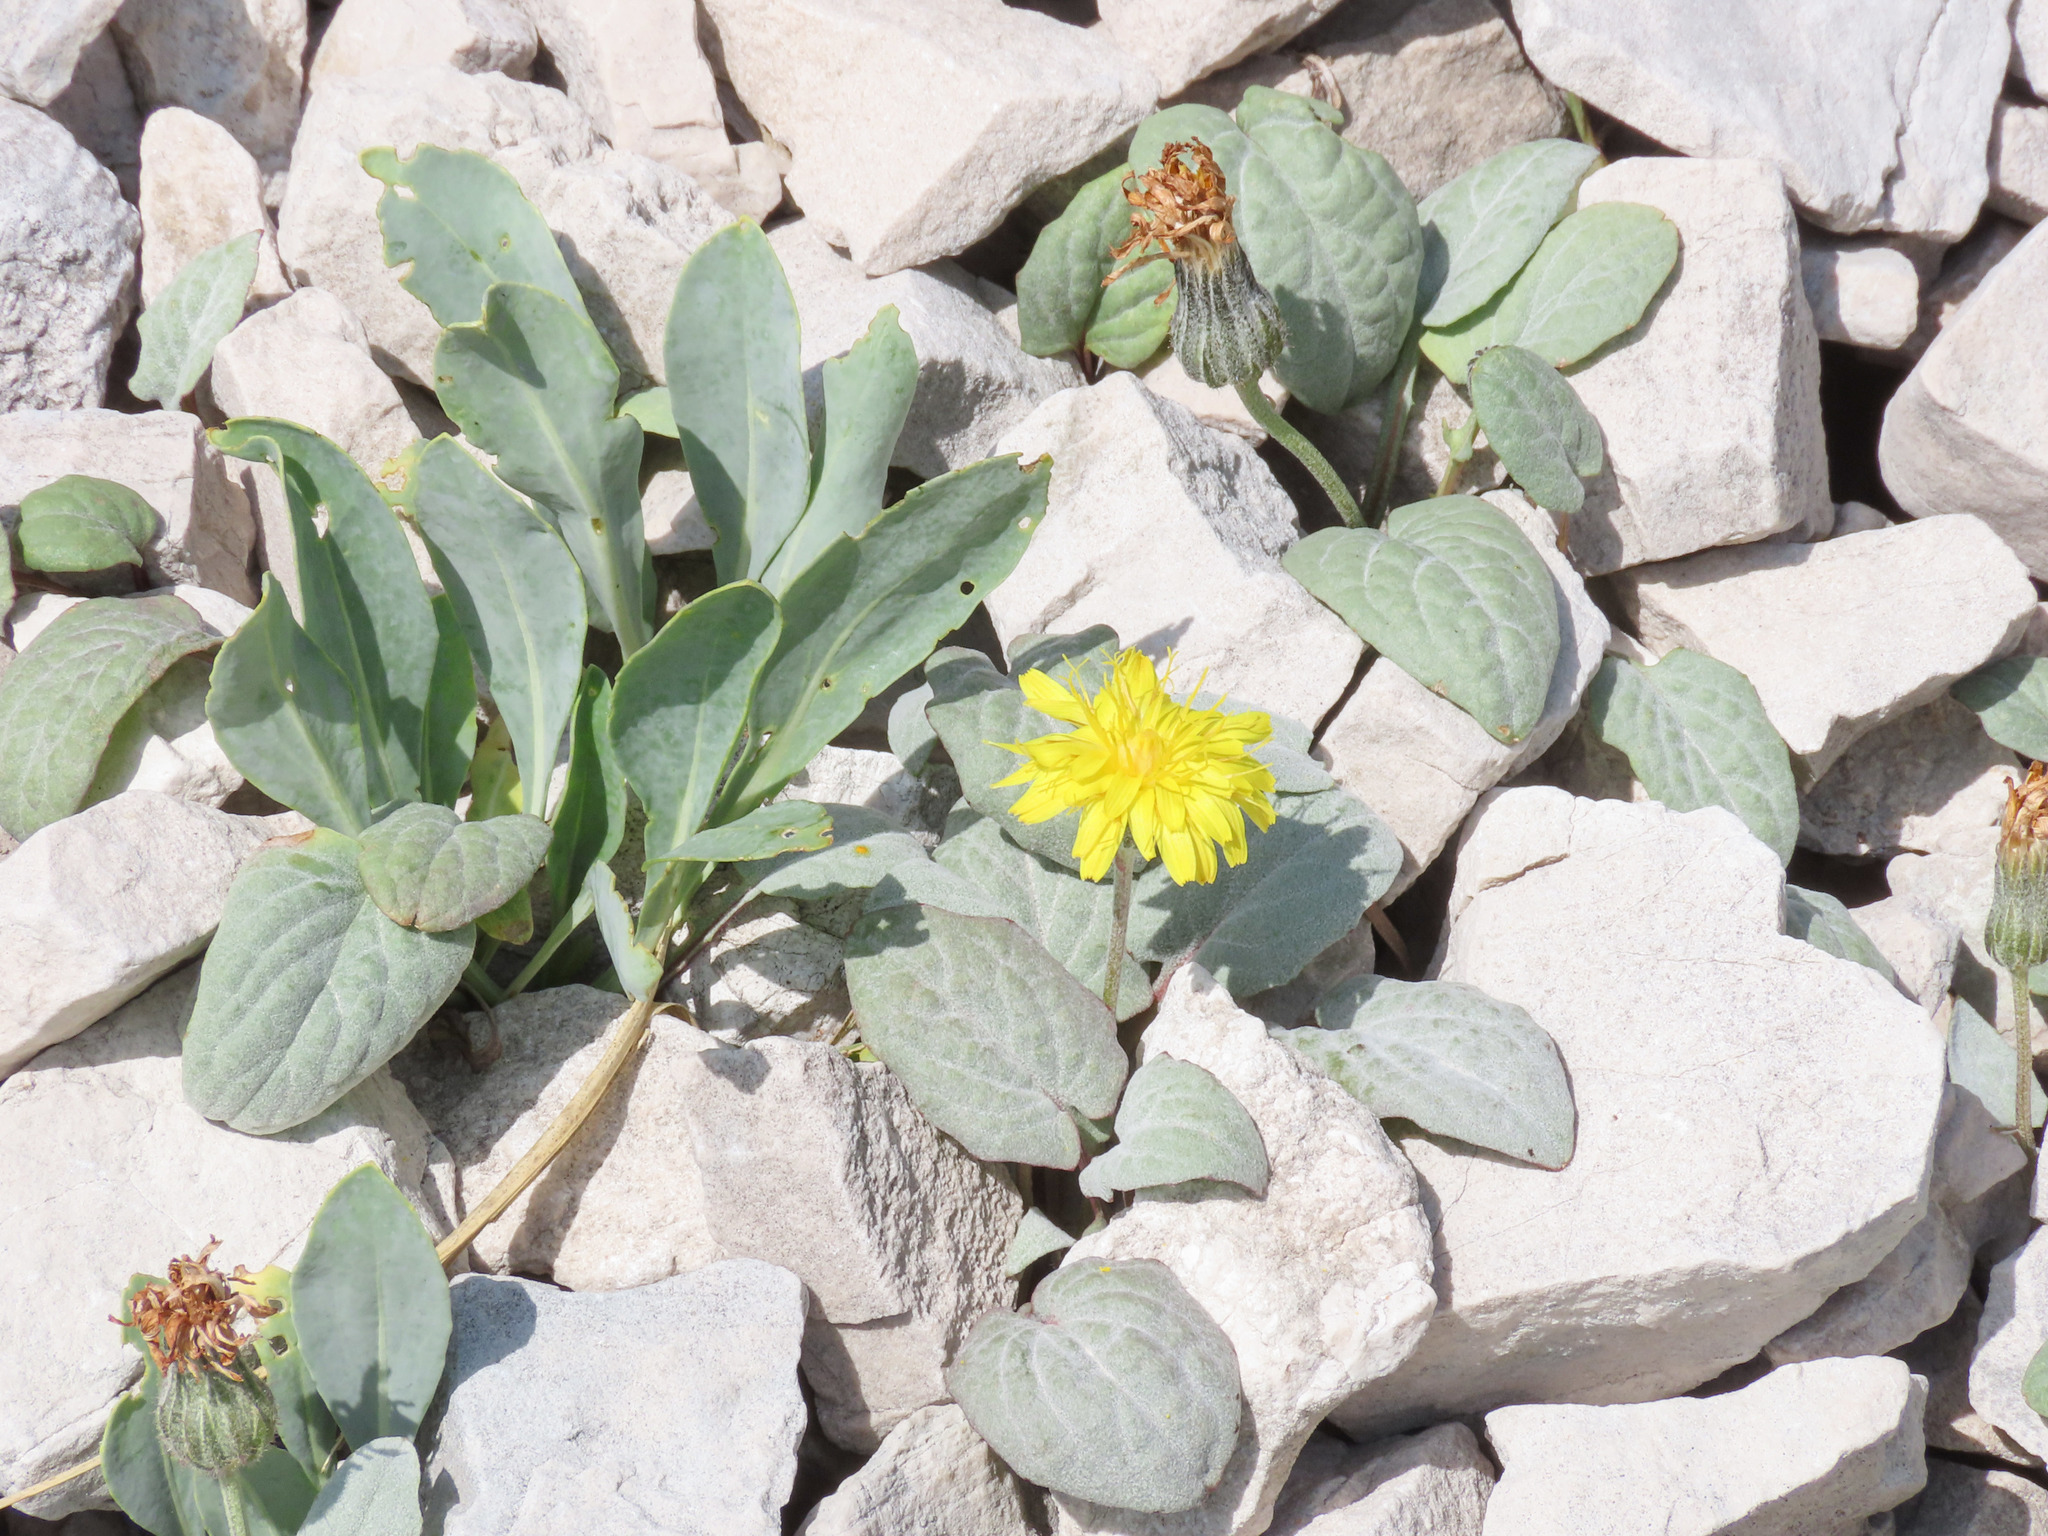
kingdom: Plantae
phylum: Tracheophyta
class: Magnoliopsida
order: Asterales
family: Asteraceae
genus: Crepis
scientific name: Crepis pygmaea
